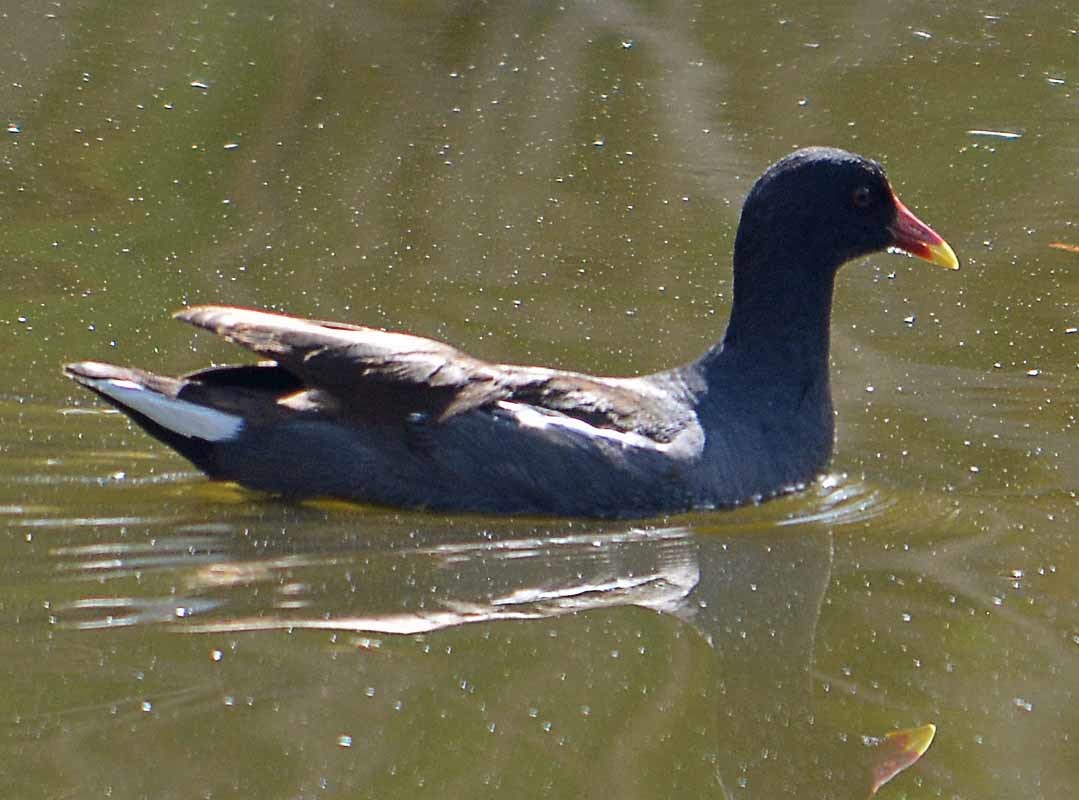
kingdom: Animalia
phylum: Chordata
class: Aves
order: Gruiformes
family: Rallidae
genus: Gallinula
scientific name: Gallinula chloropus
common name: Common moorhen
